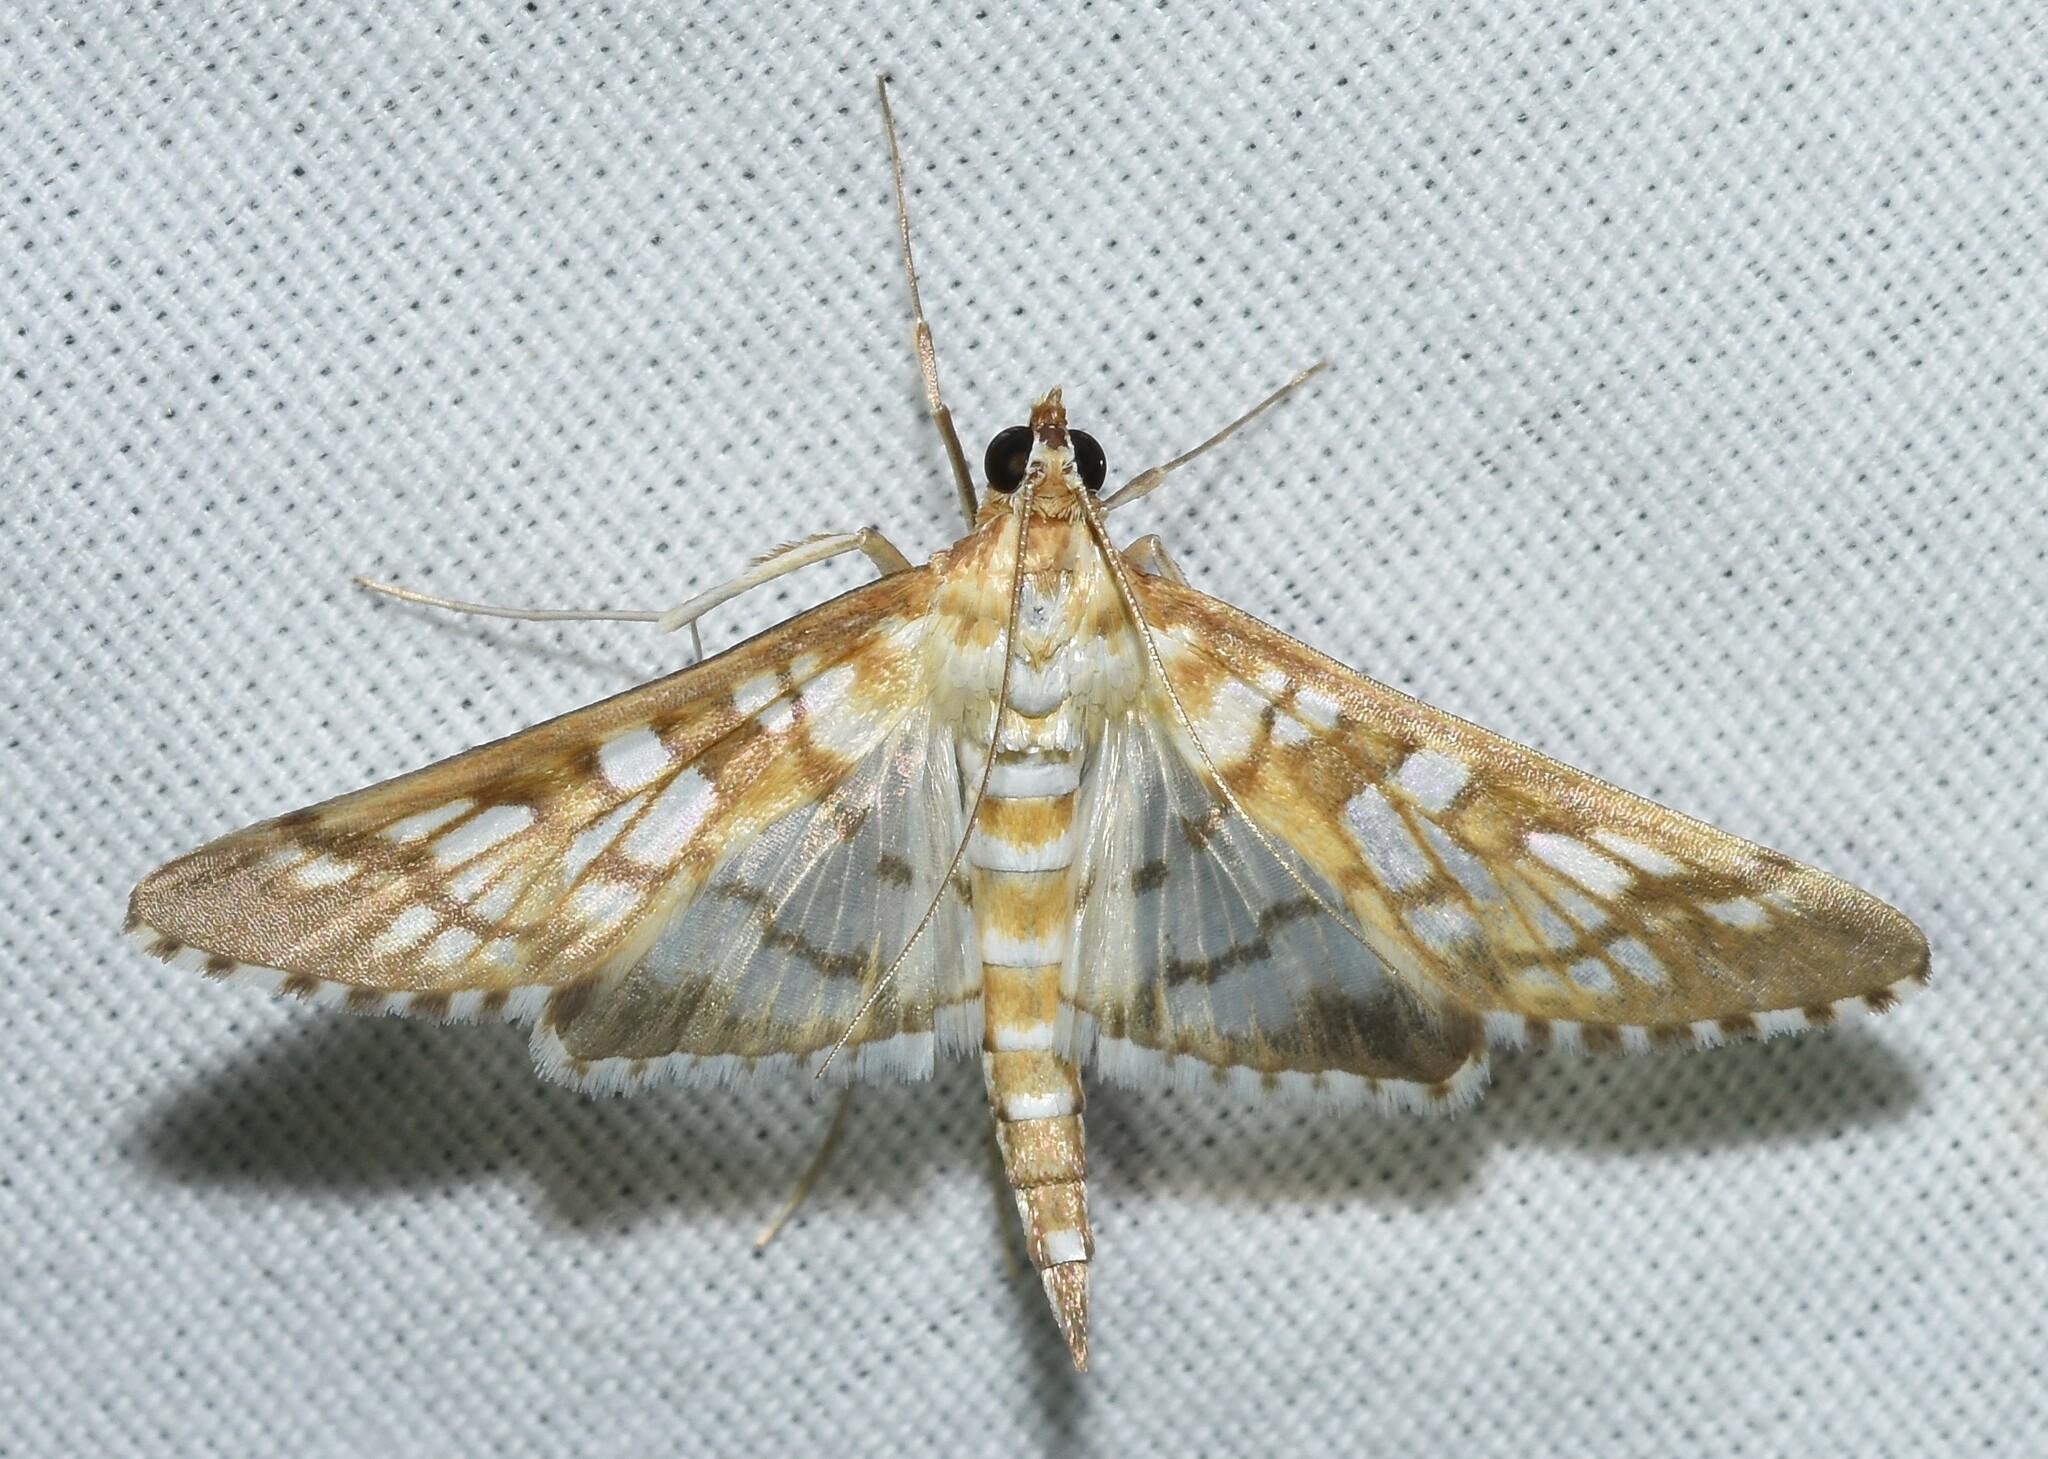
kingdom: Animalia
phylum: Arthropoda
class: Insecta
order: Lepidoptera
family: Crambidae
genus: Epipagis
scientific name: Epipagis fenestralis
